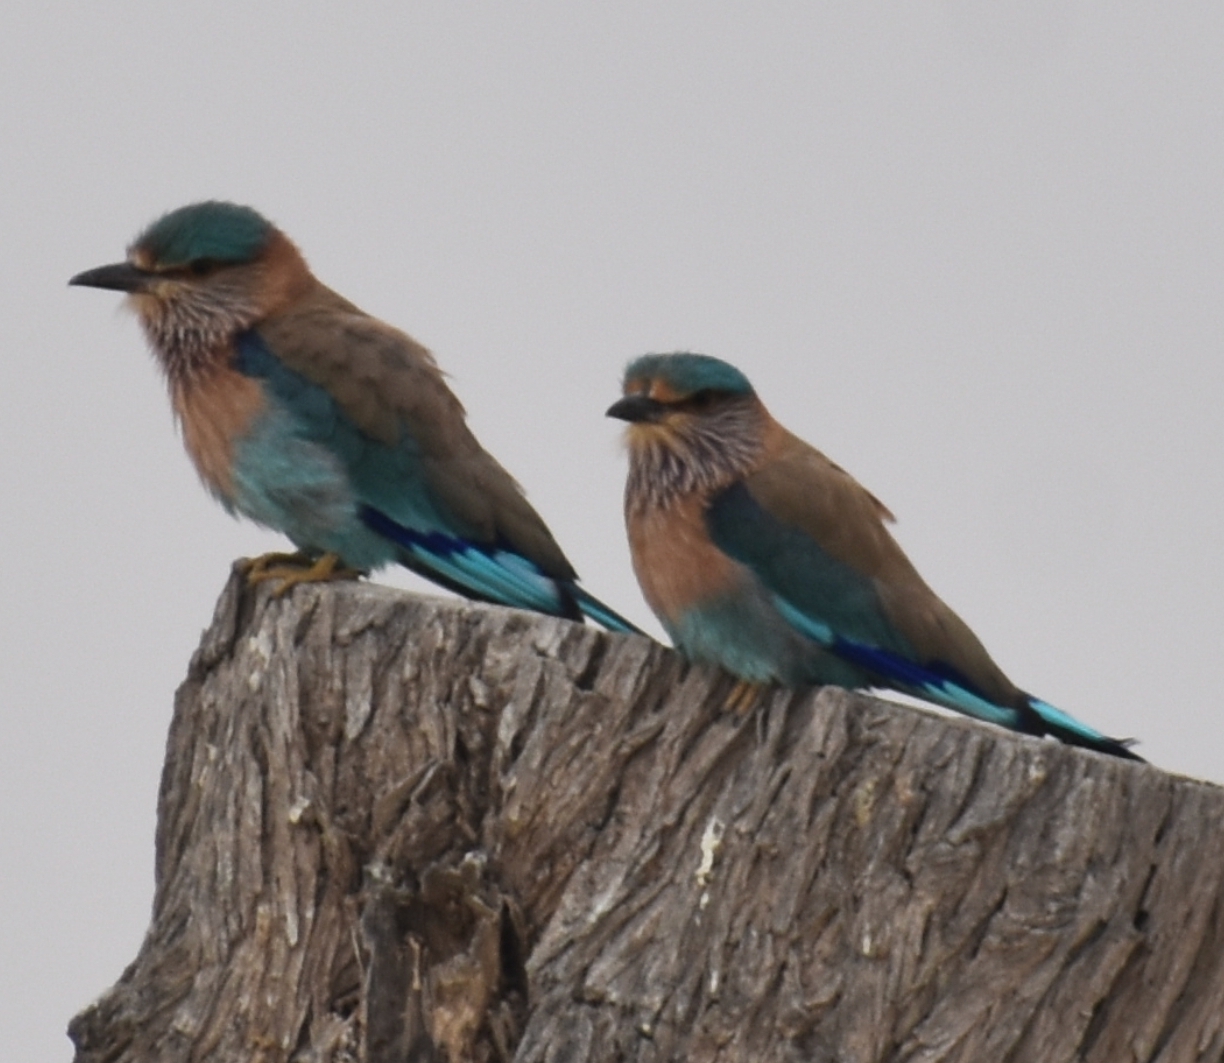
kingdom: Animalia
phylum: Chordata
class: Aves
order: Coraciiformes
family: Coraciidae
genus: Coracias
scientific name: Coracias benghalensis
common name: Indian roller
